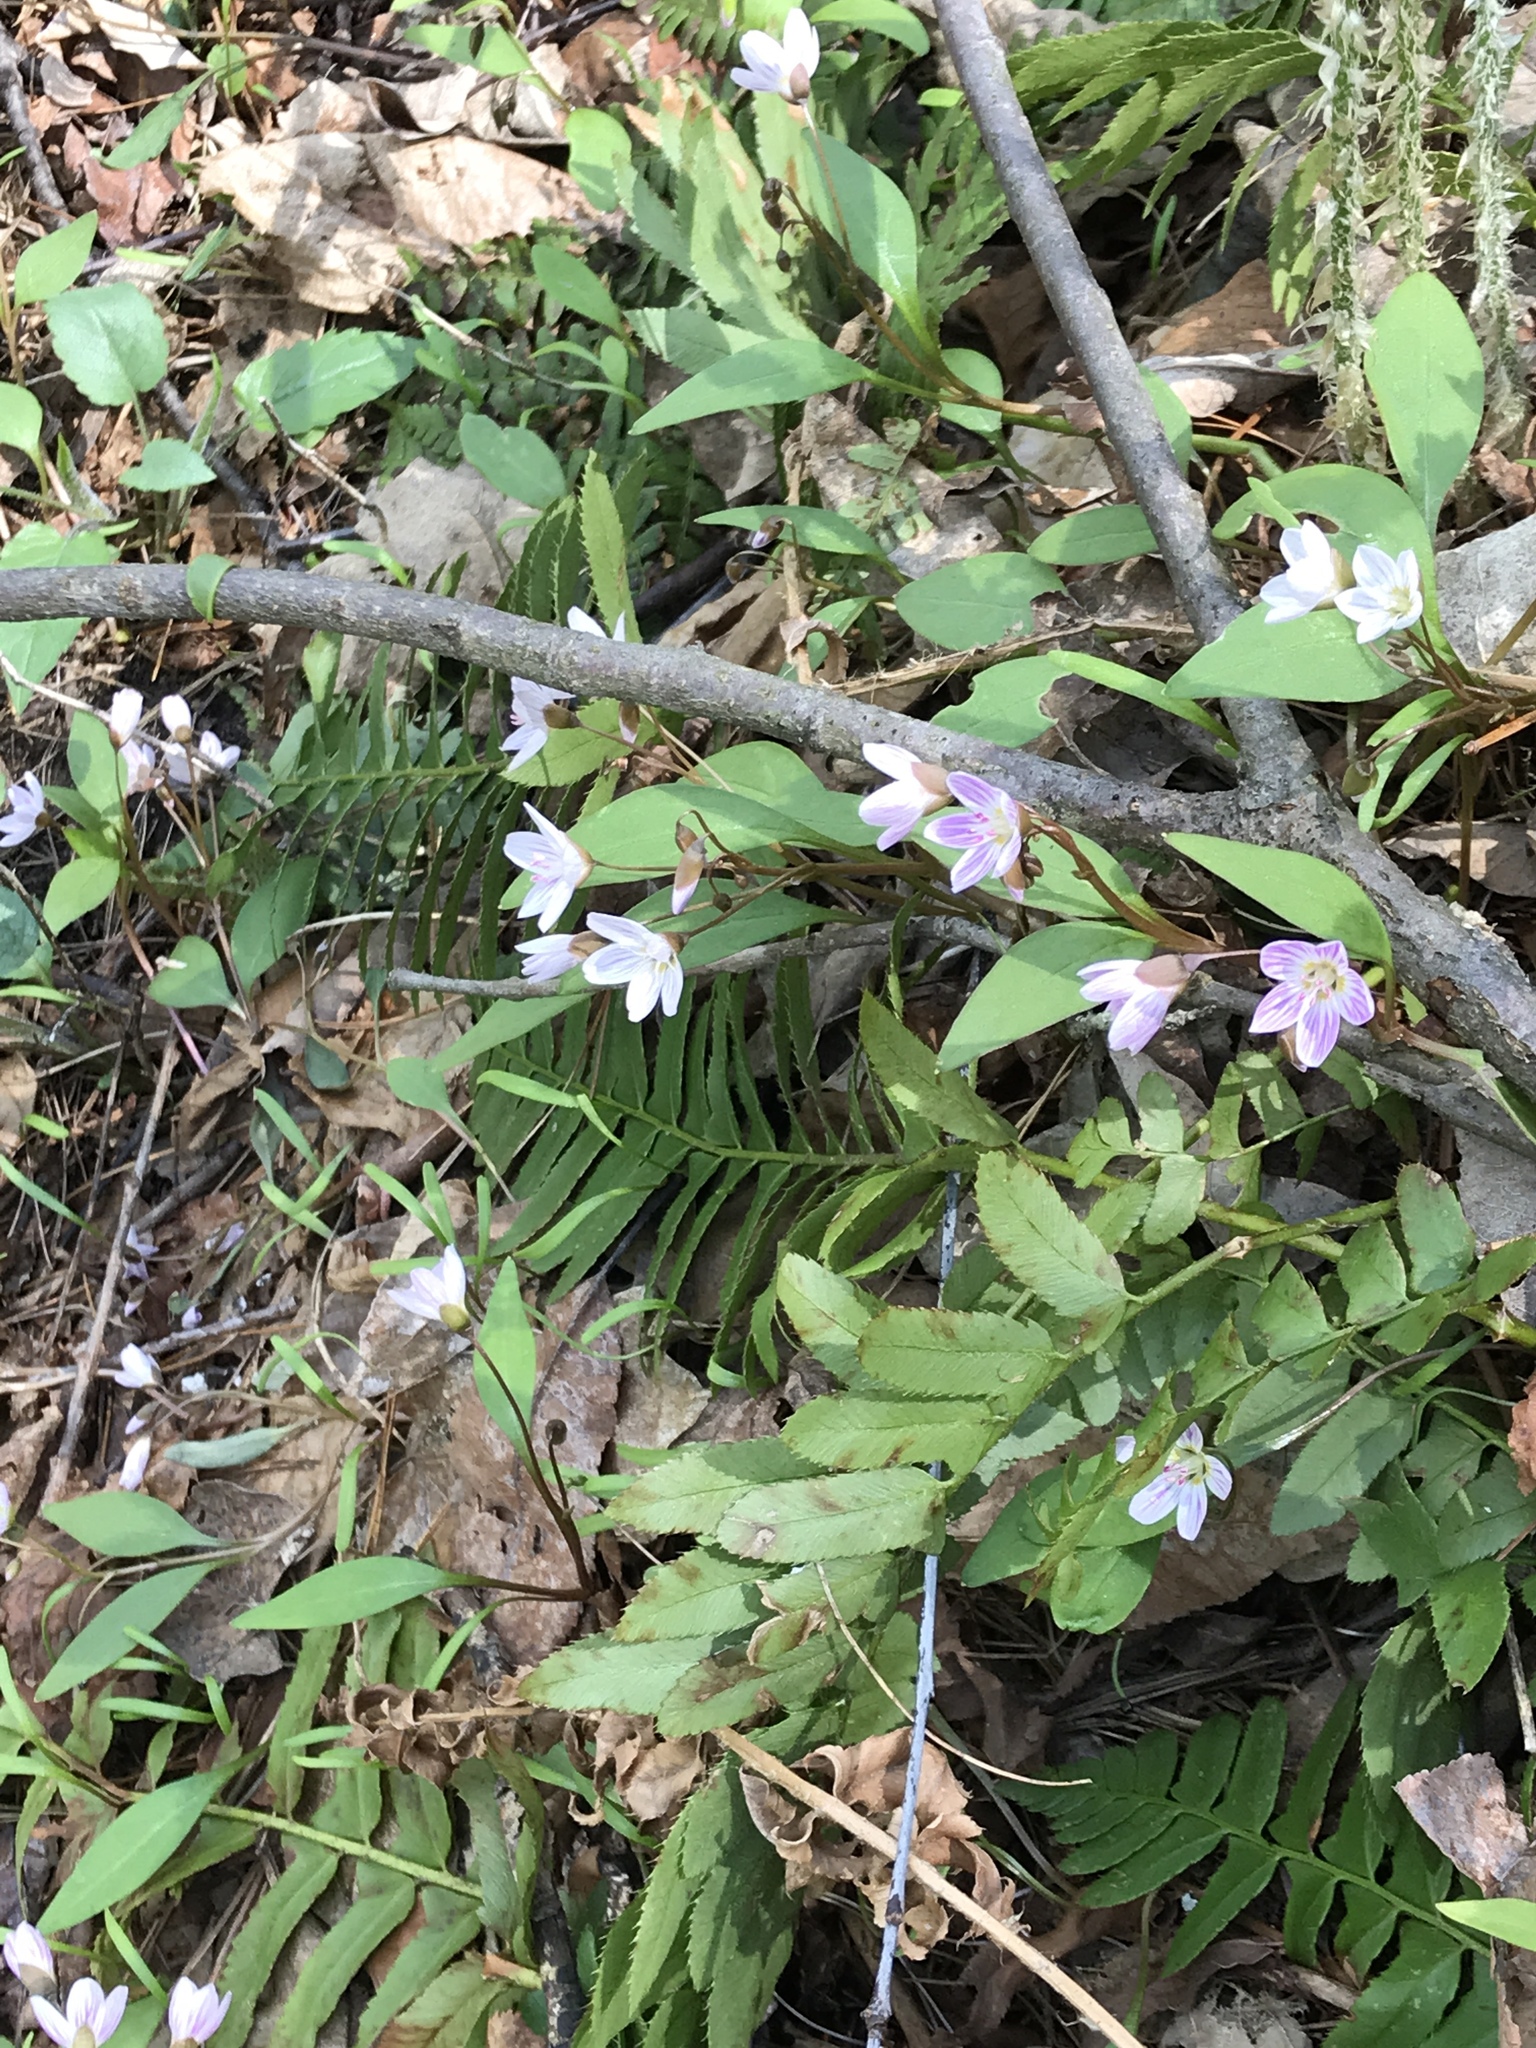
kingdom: Plantae
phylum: Tracheophyta
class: Magnoliopsida
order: Caryophyllales
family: Montiaceae
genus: Claytonia
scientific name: Claytonia caroliniana
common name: Carolina spring beauty
